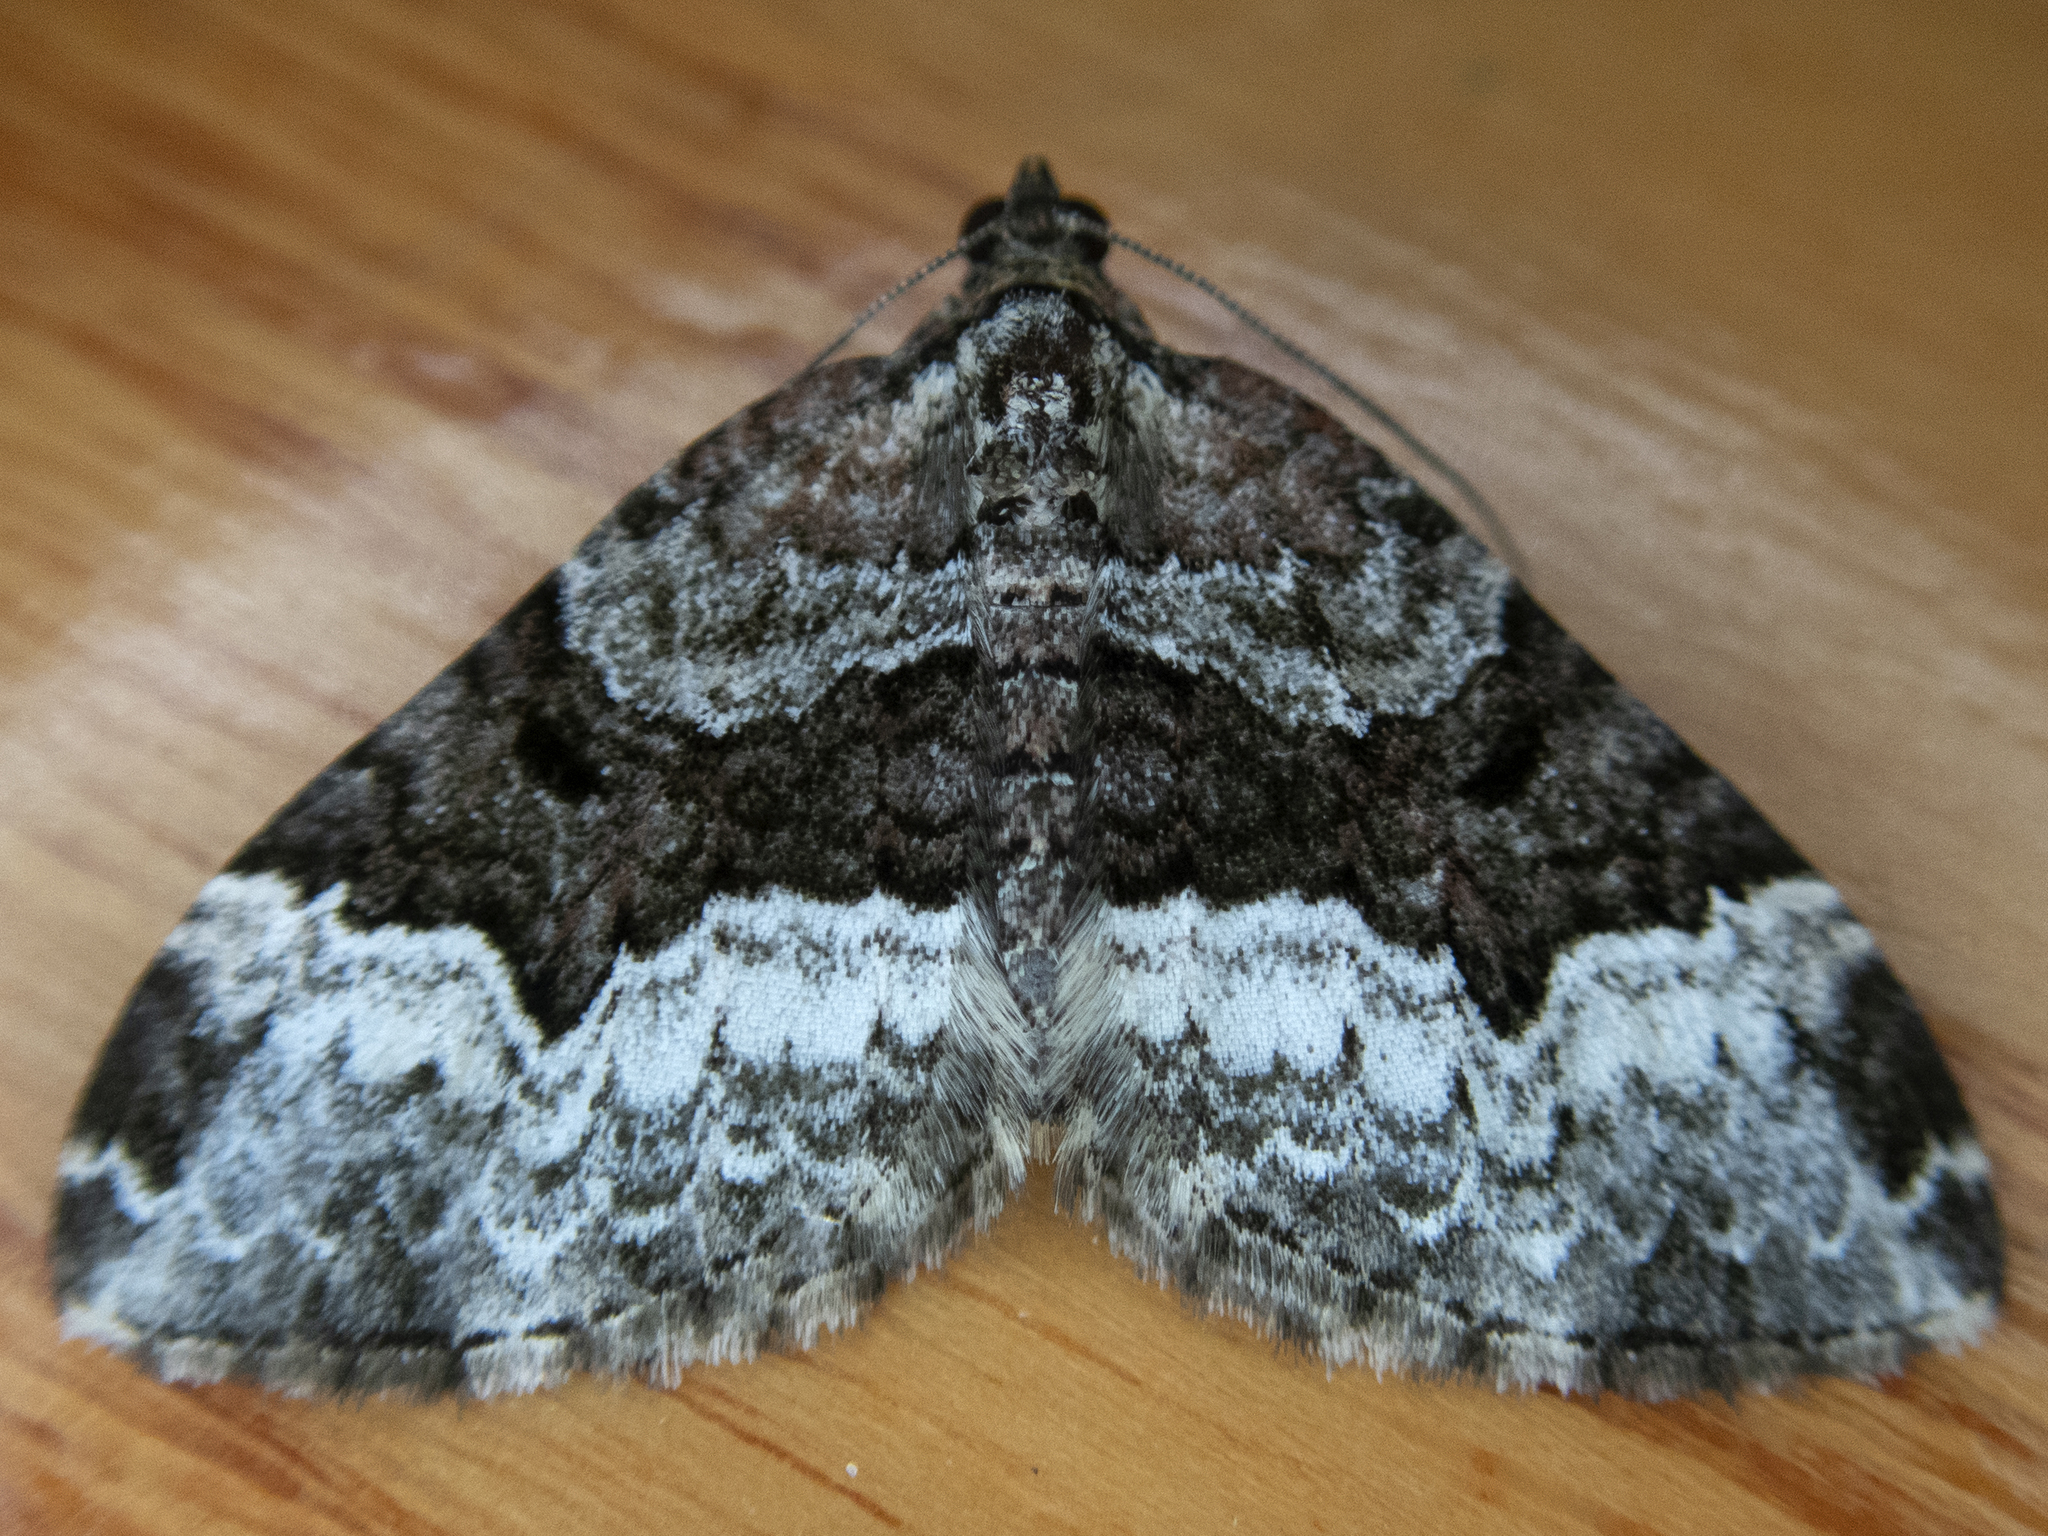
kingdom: Animalia
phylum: Arthropoda
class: Insecta
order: Lepidoptera
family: Geometridae
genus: Euphyia
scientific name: Euphyia intermediata
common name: Sharp-angled carpet
